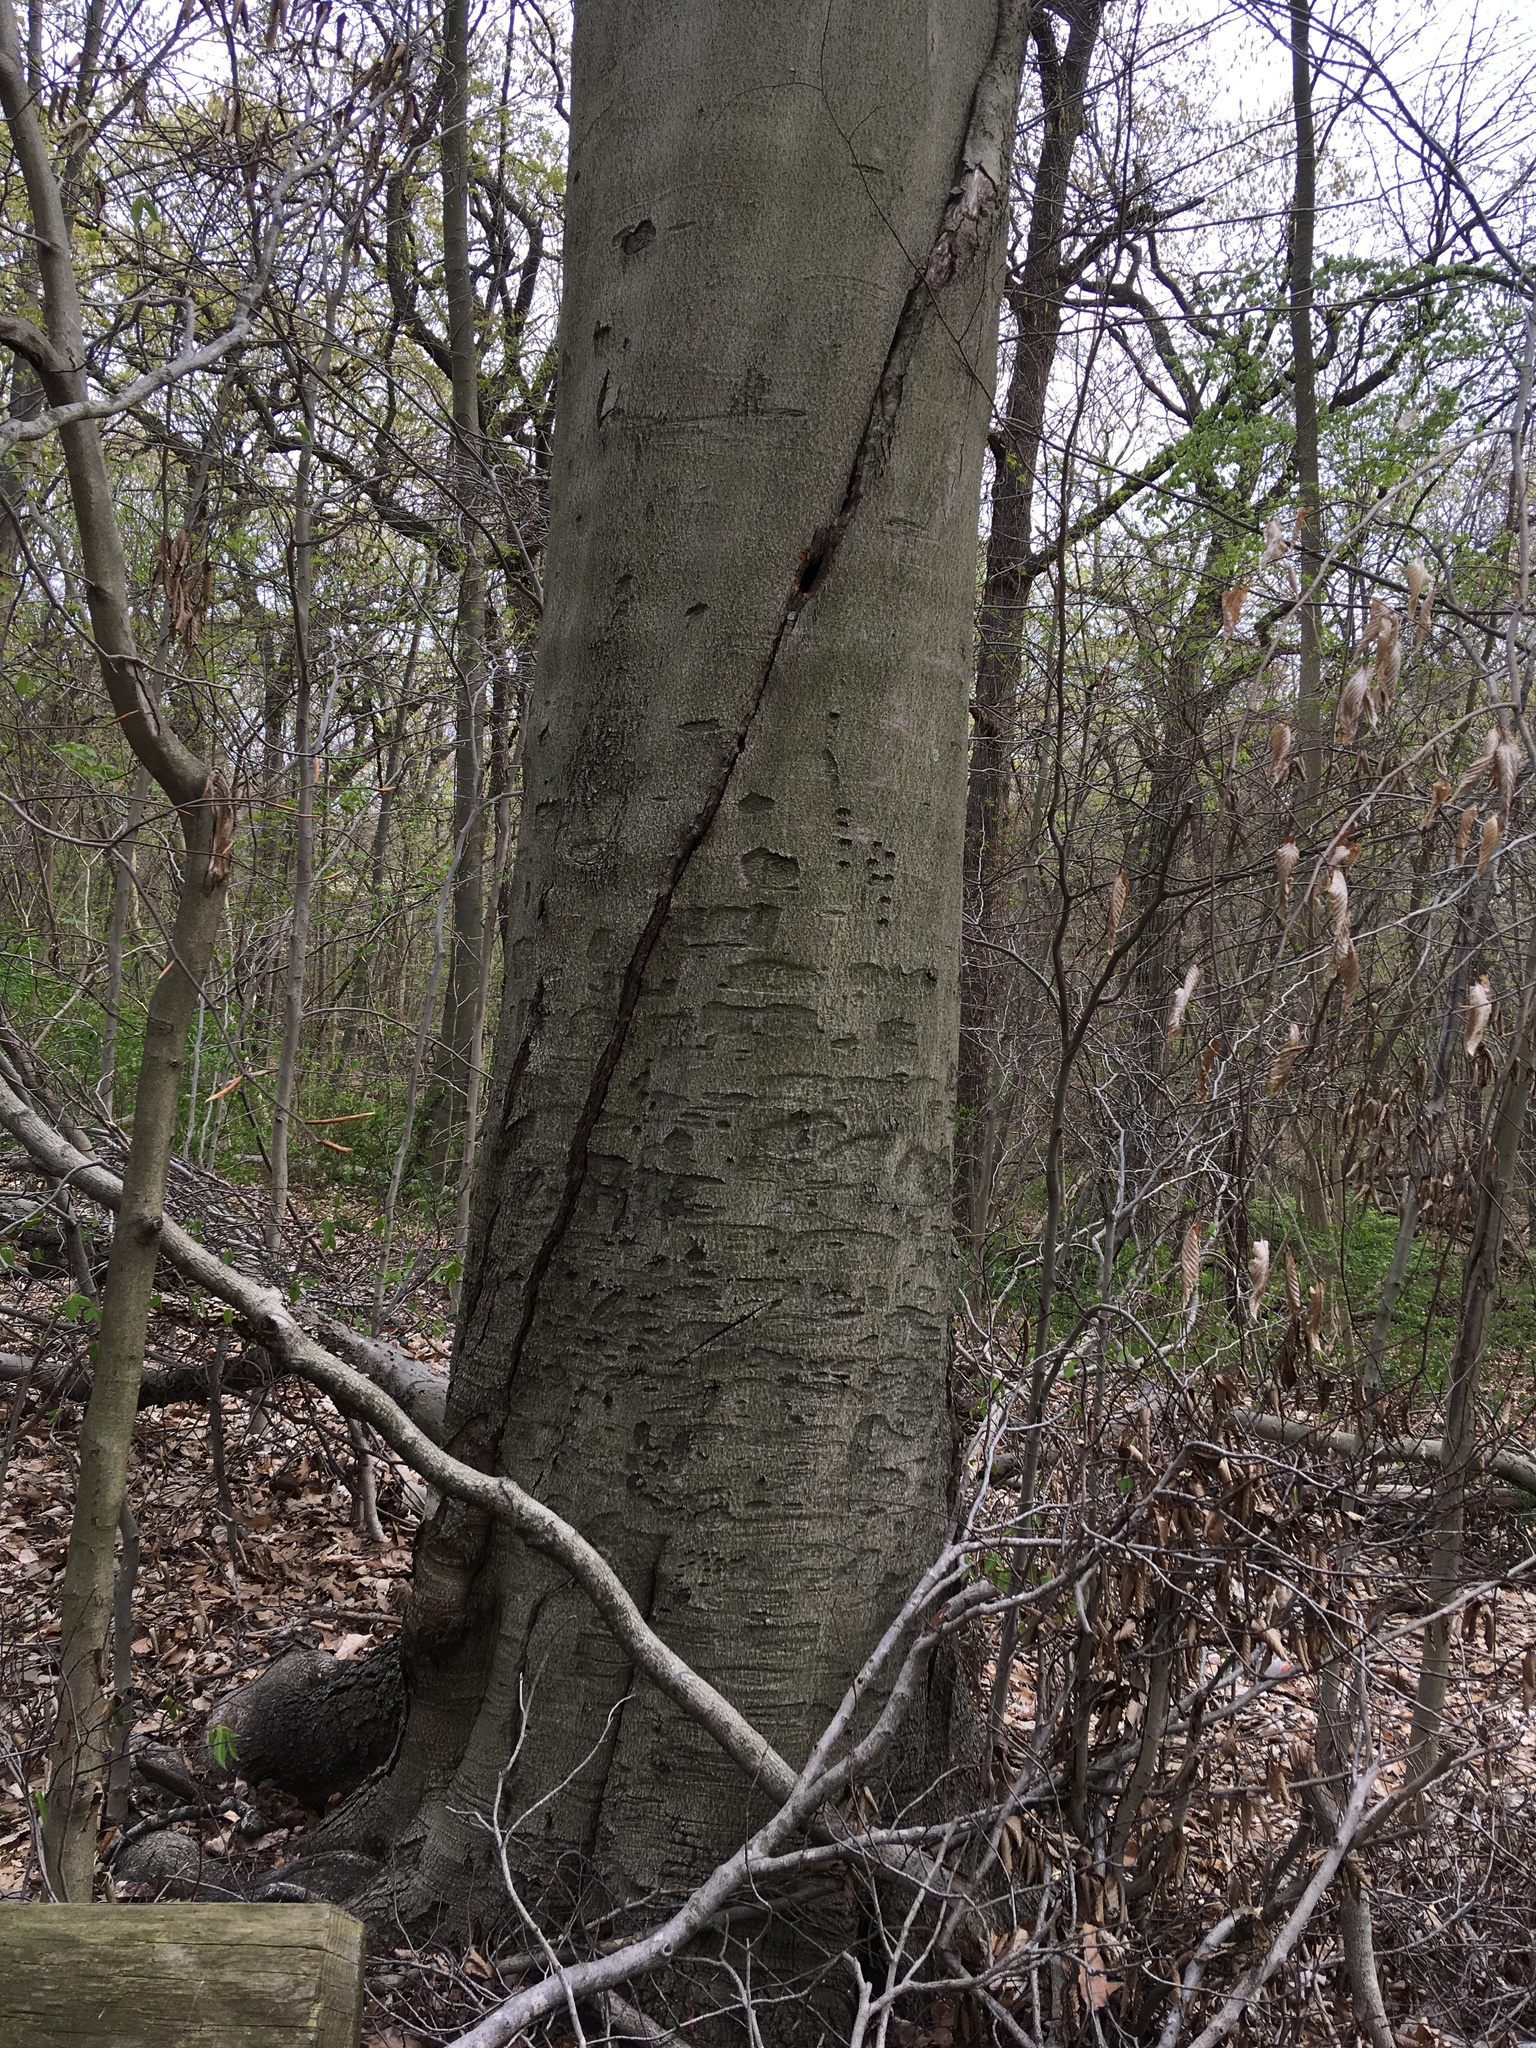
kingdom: Plantae
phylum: Tracheophyta
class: Magnoliopsida
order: Fagales
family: Fagaceae
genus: Fagus
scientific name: Fagus grandifolia
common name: American beech
